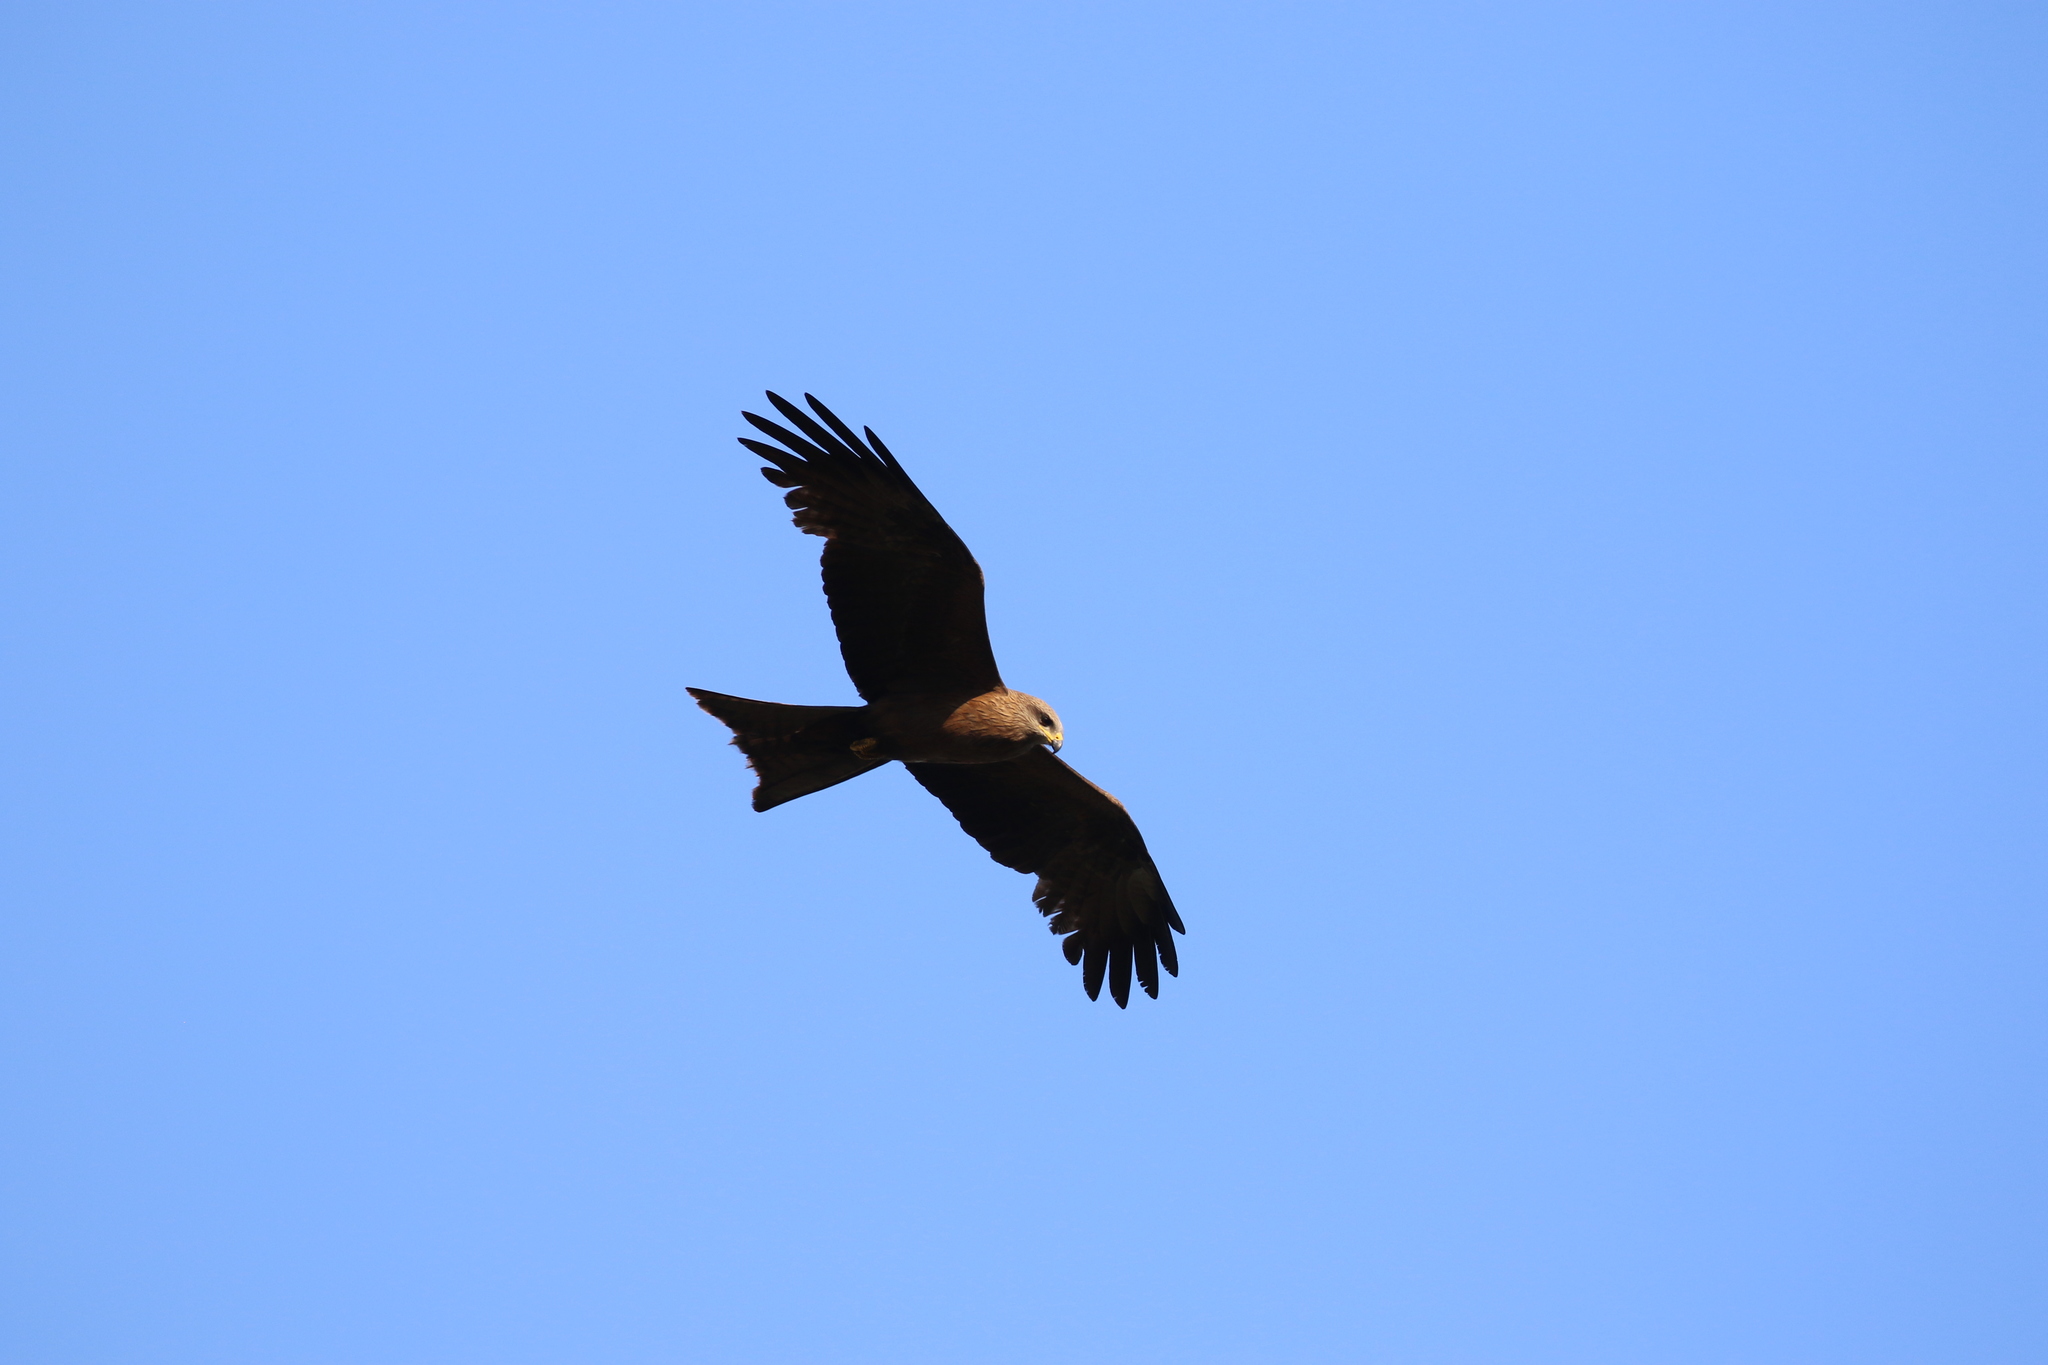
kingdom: Animalia
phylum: Chordata
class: Aves
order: Accipitriformes
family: Accipitridae
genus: Milvus
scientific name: Milvus migrans
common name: Black kite
